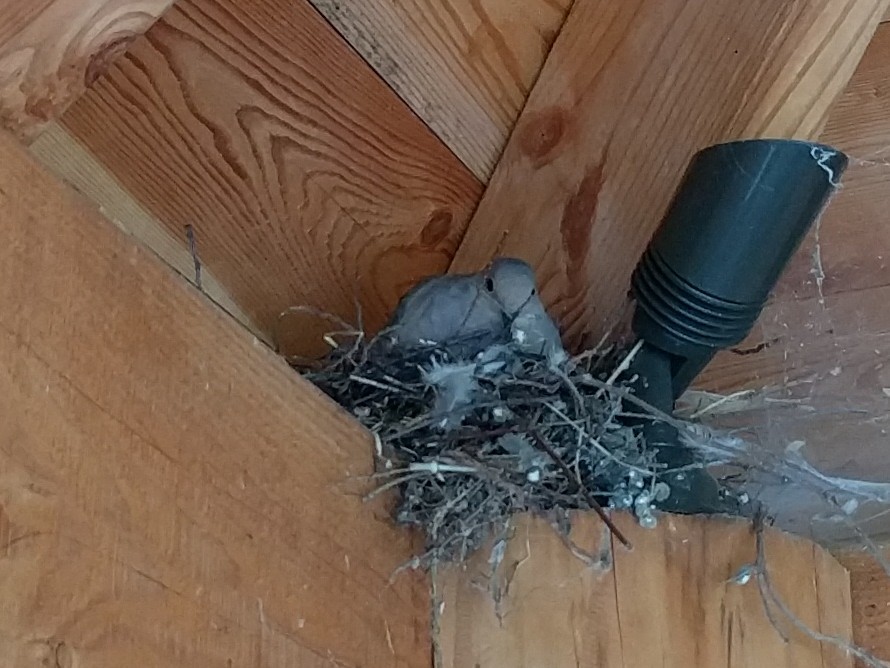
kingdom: Animalia
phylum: Chordata
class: Aves
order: Columbiformes
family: Columbidae
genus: Zenaida
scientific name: Zenaida macroura
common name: Mourning dove
